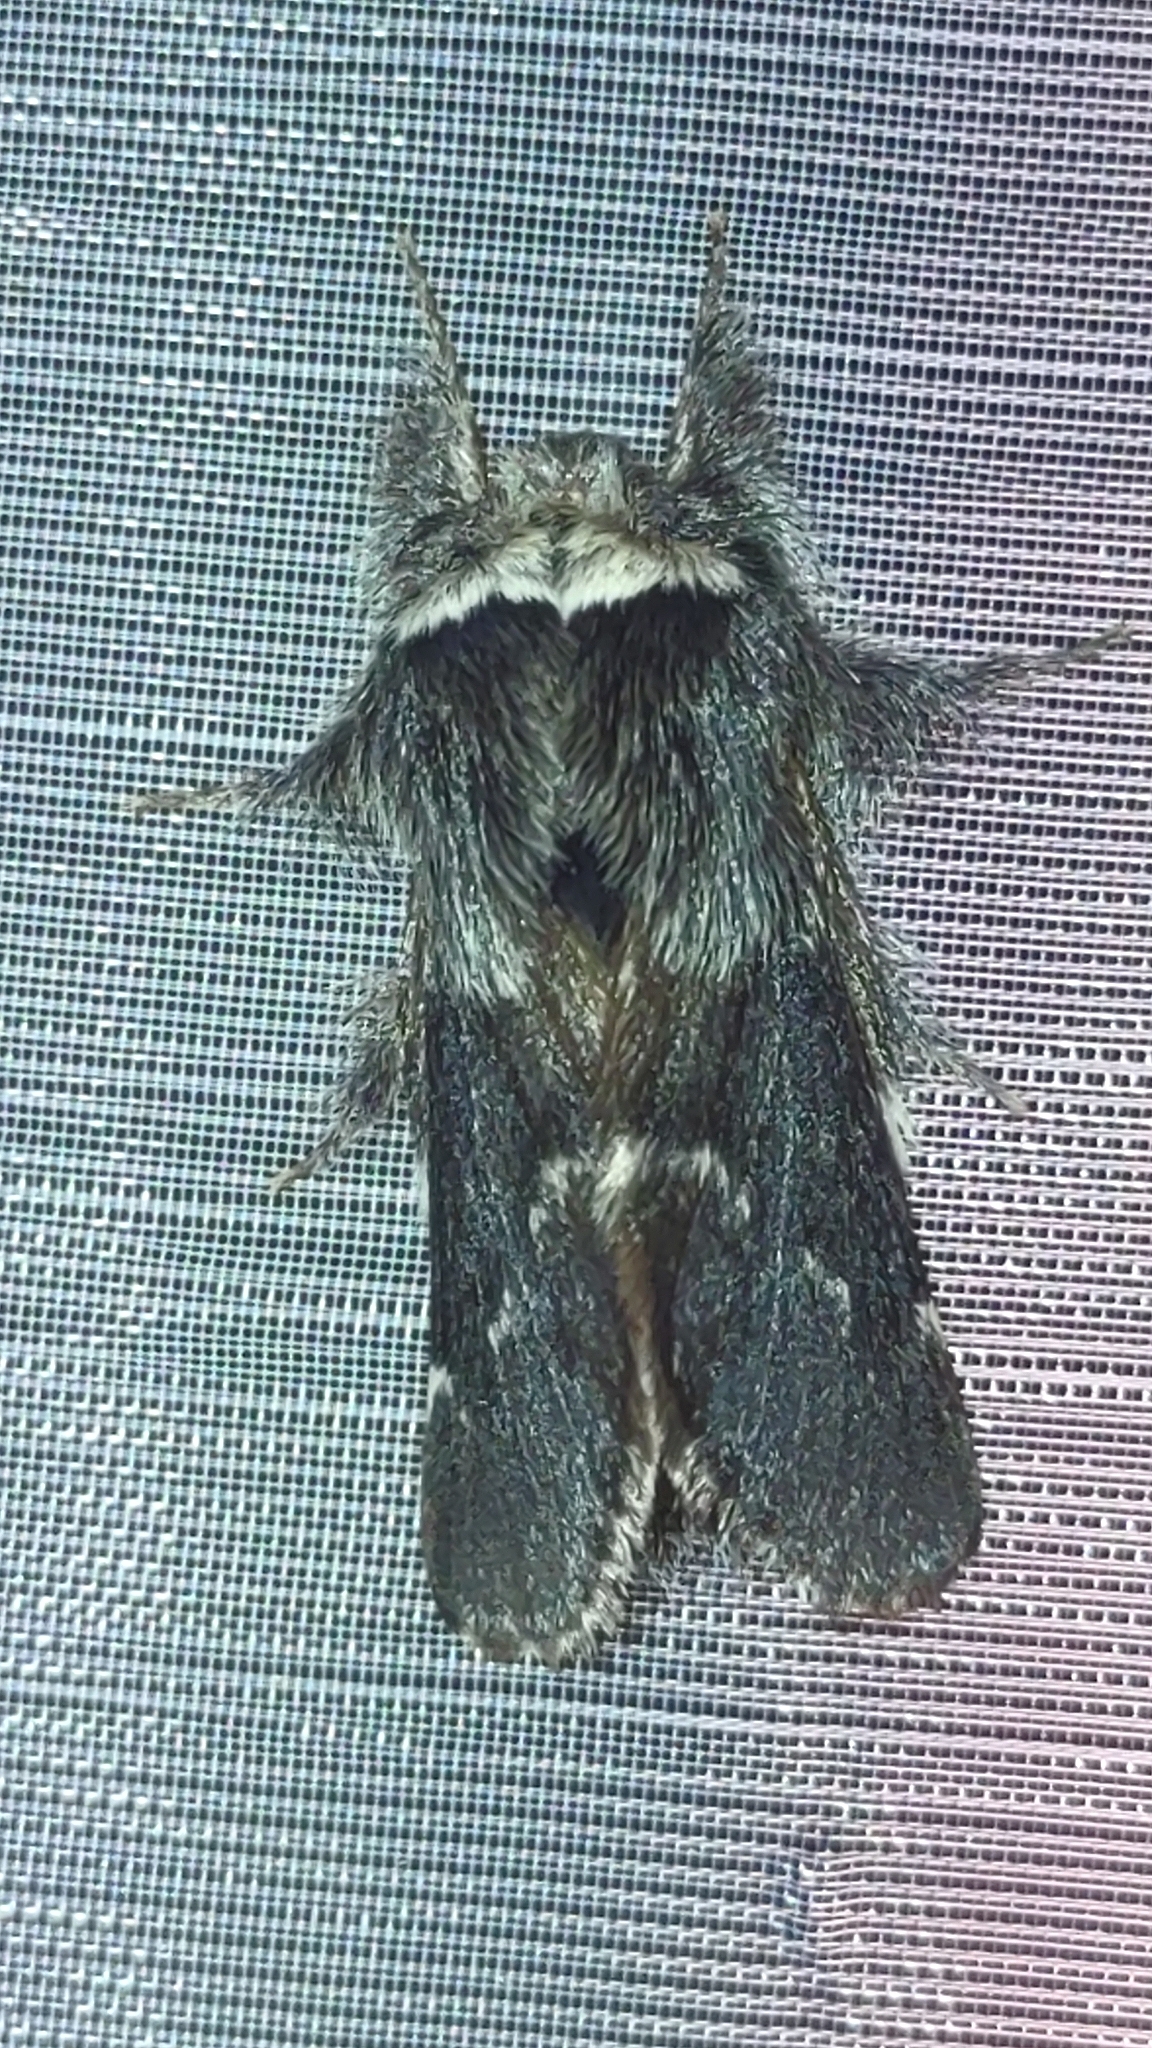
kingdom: Animalia
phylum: Arthropoda
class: Insecta
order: Lepidoptera
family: Lasiocampidae
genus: Poecilocampa
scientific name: Poecilocampa populi
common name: December moth
